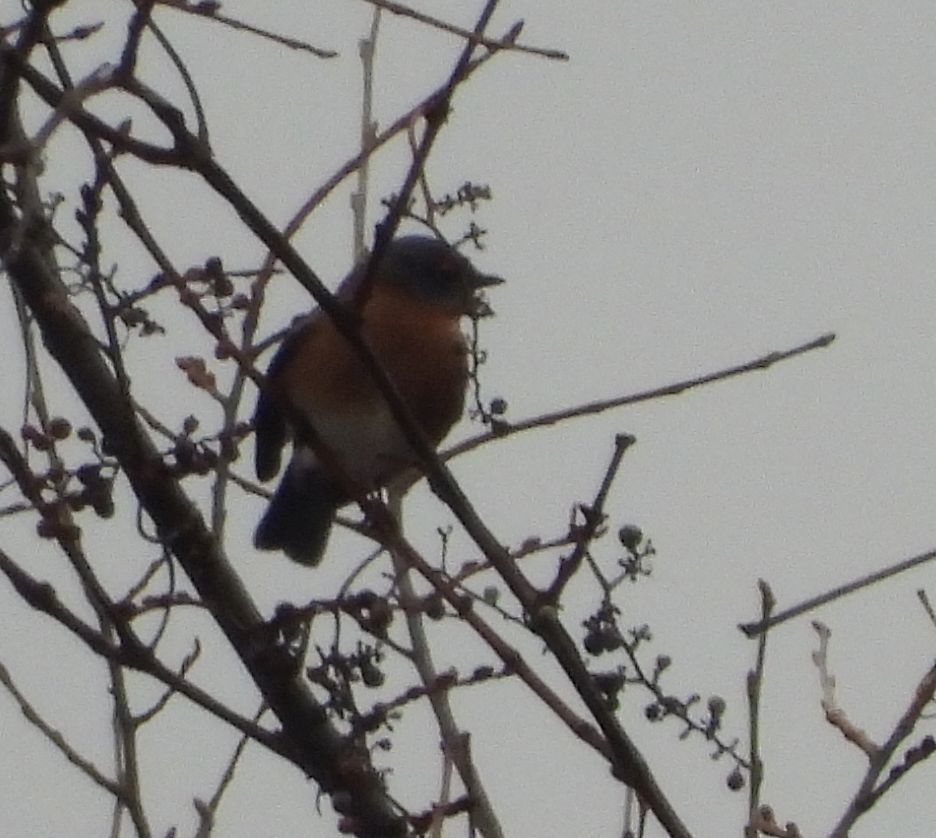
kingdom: Animalia
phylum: Chordata
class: Aves
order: Passeriformes
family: Turdidae
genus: Sialia
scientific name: Sialia sialis
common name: Eastern bluebird
